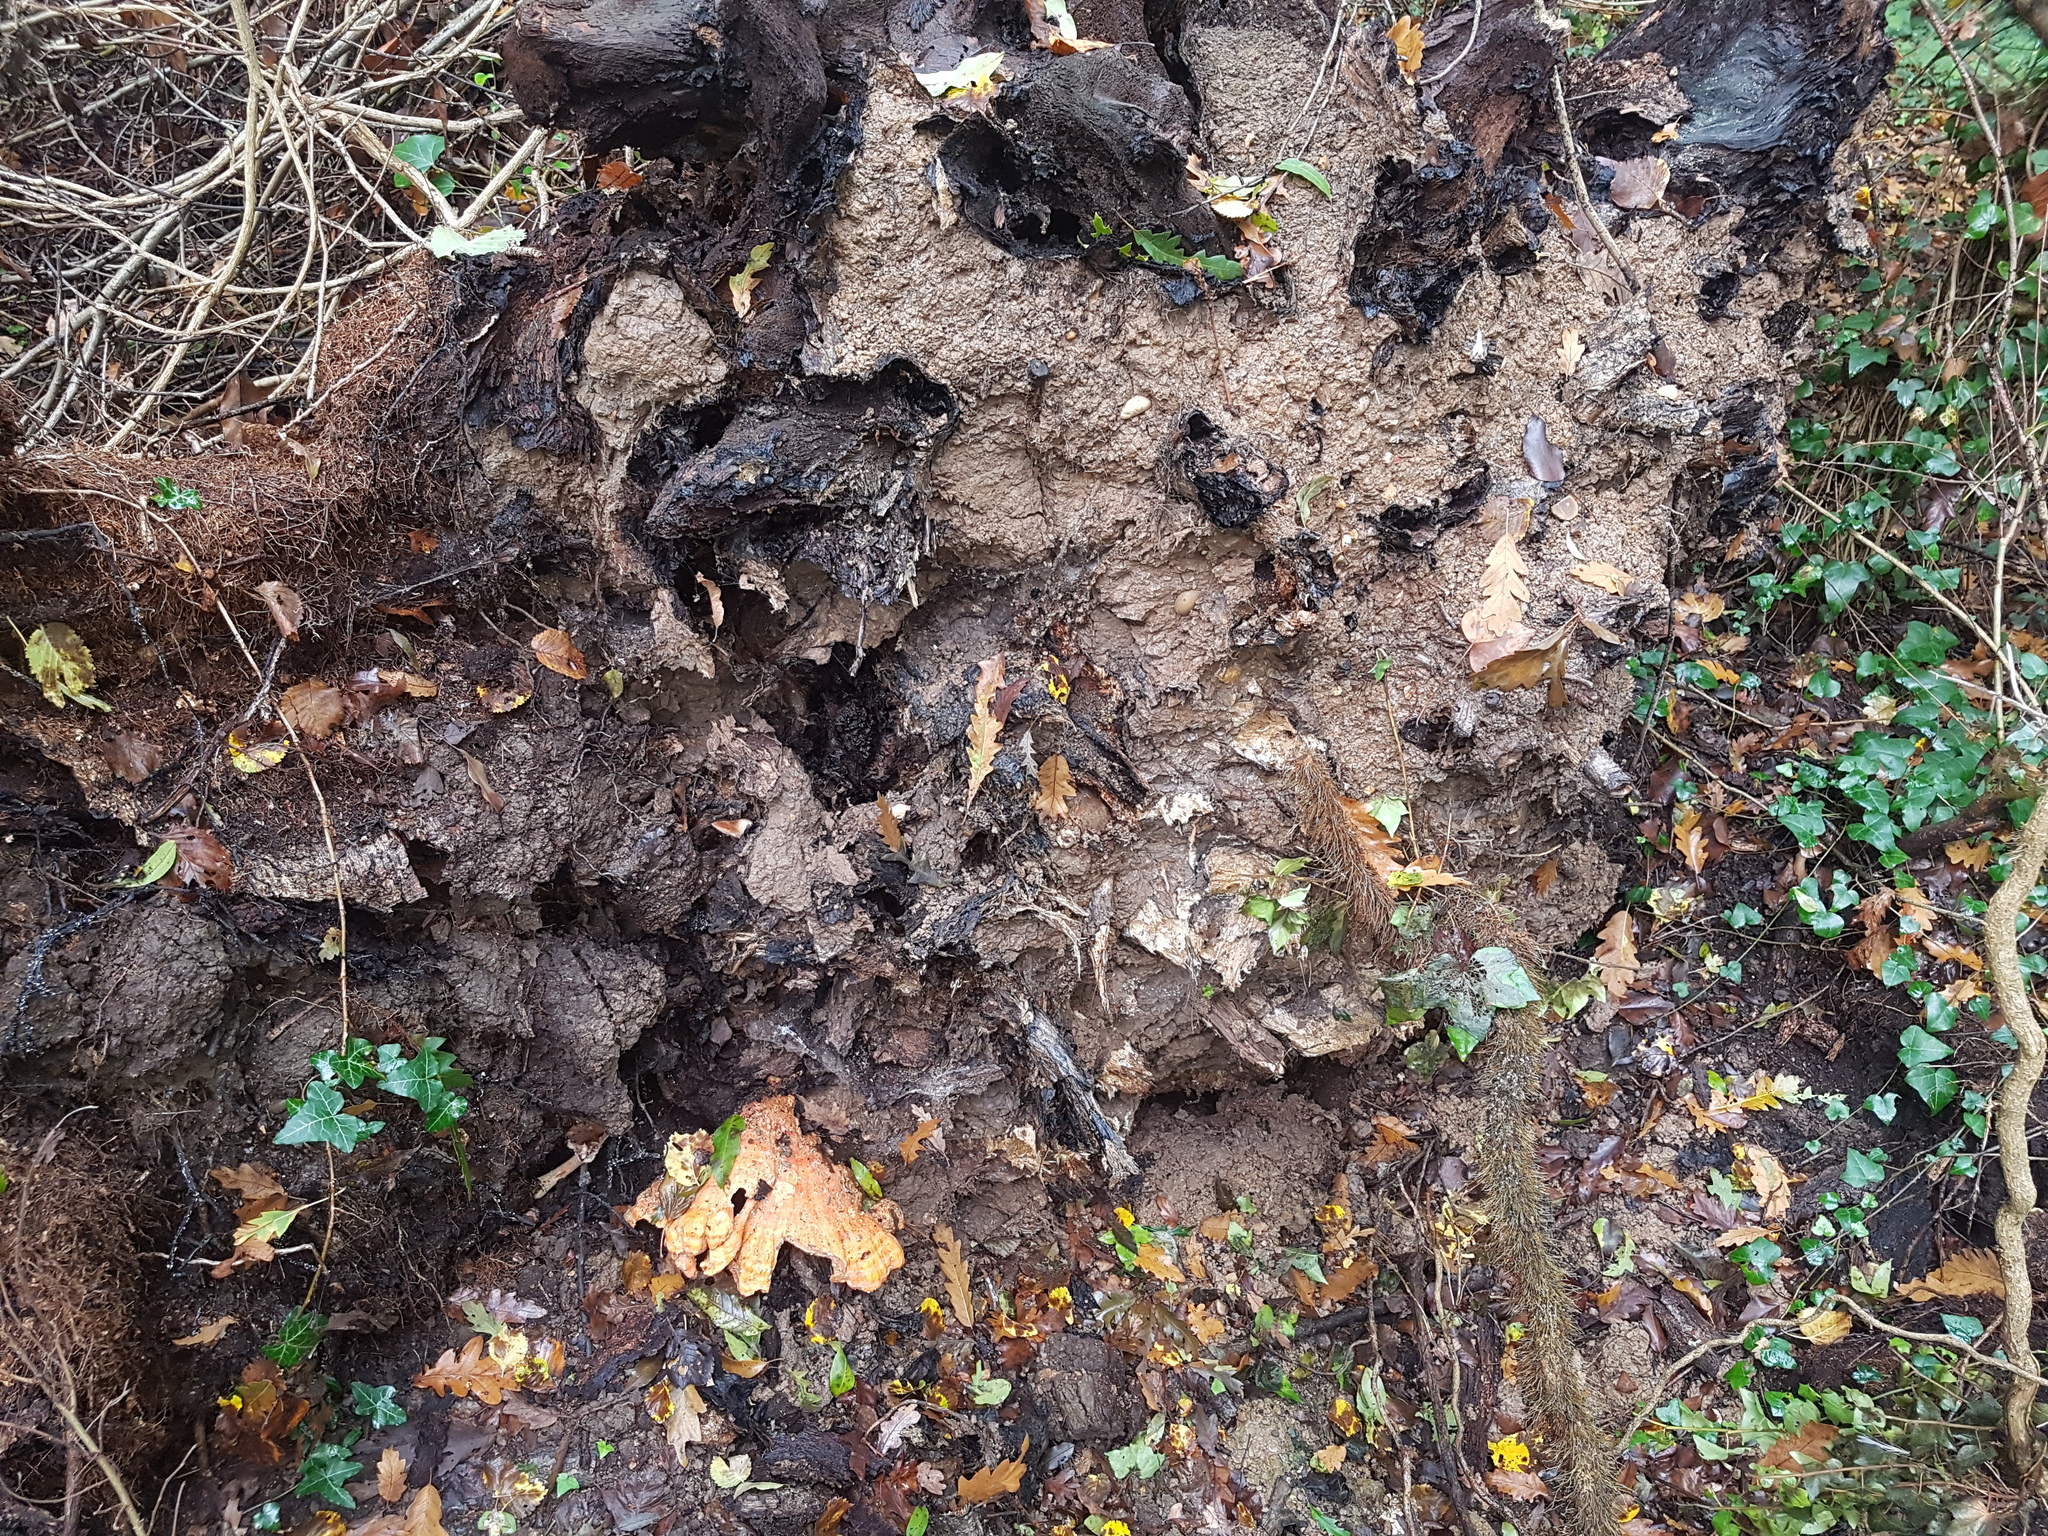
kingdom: Fungi
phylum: Basidiomycota
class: Agaricomycetes
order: Polyporales
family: Laetiporaceae
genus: Laetiporus
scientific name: Laetiporus sulphureus
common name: Chicken of the woods
